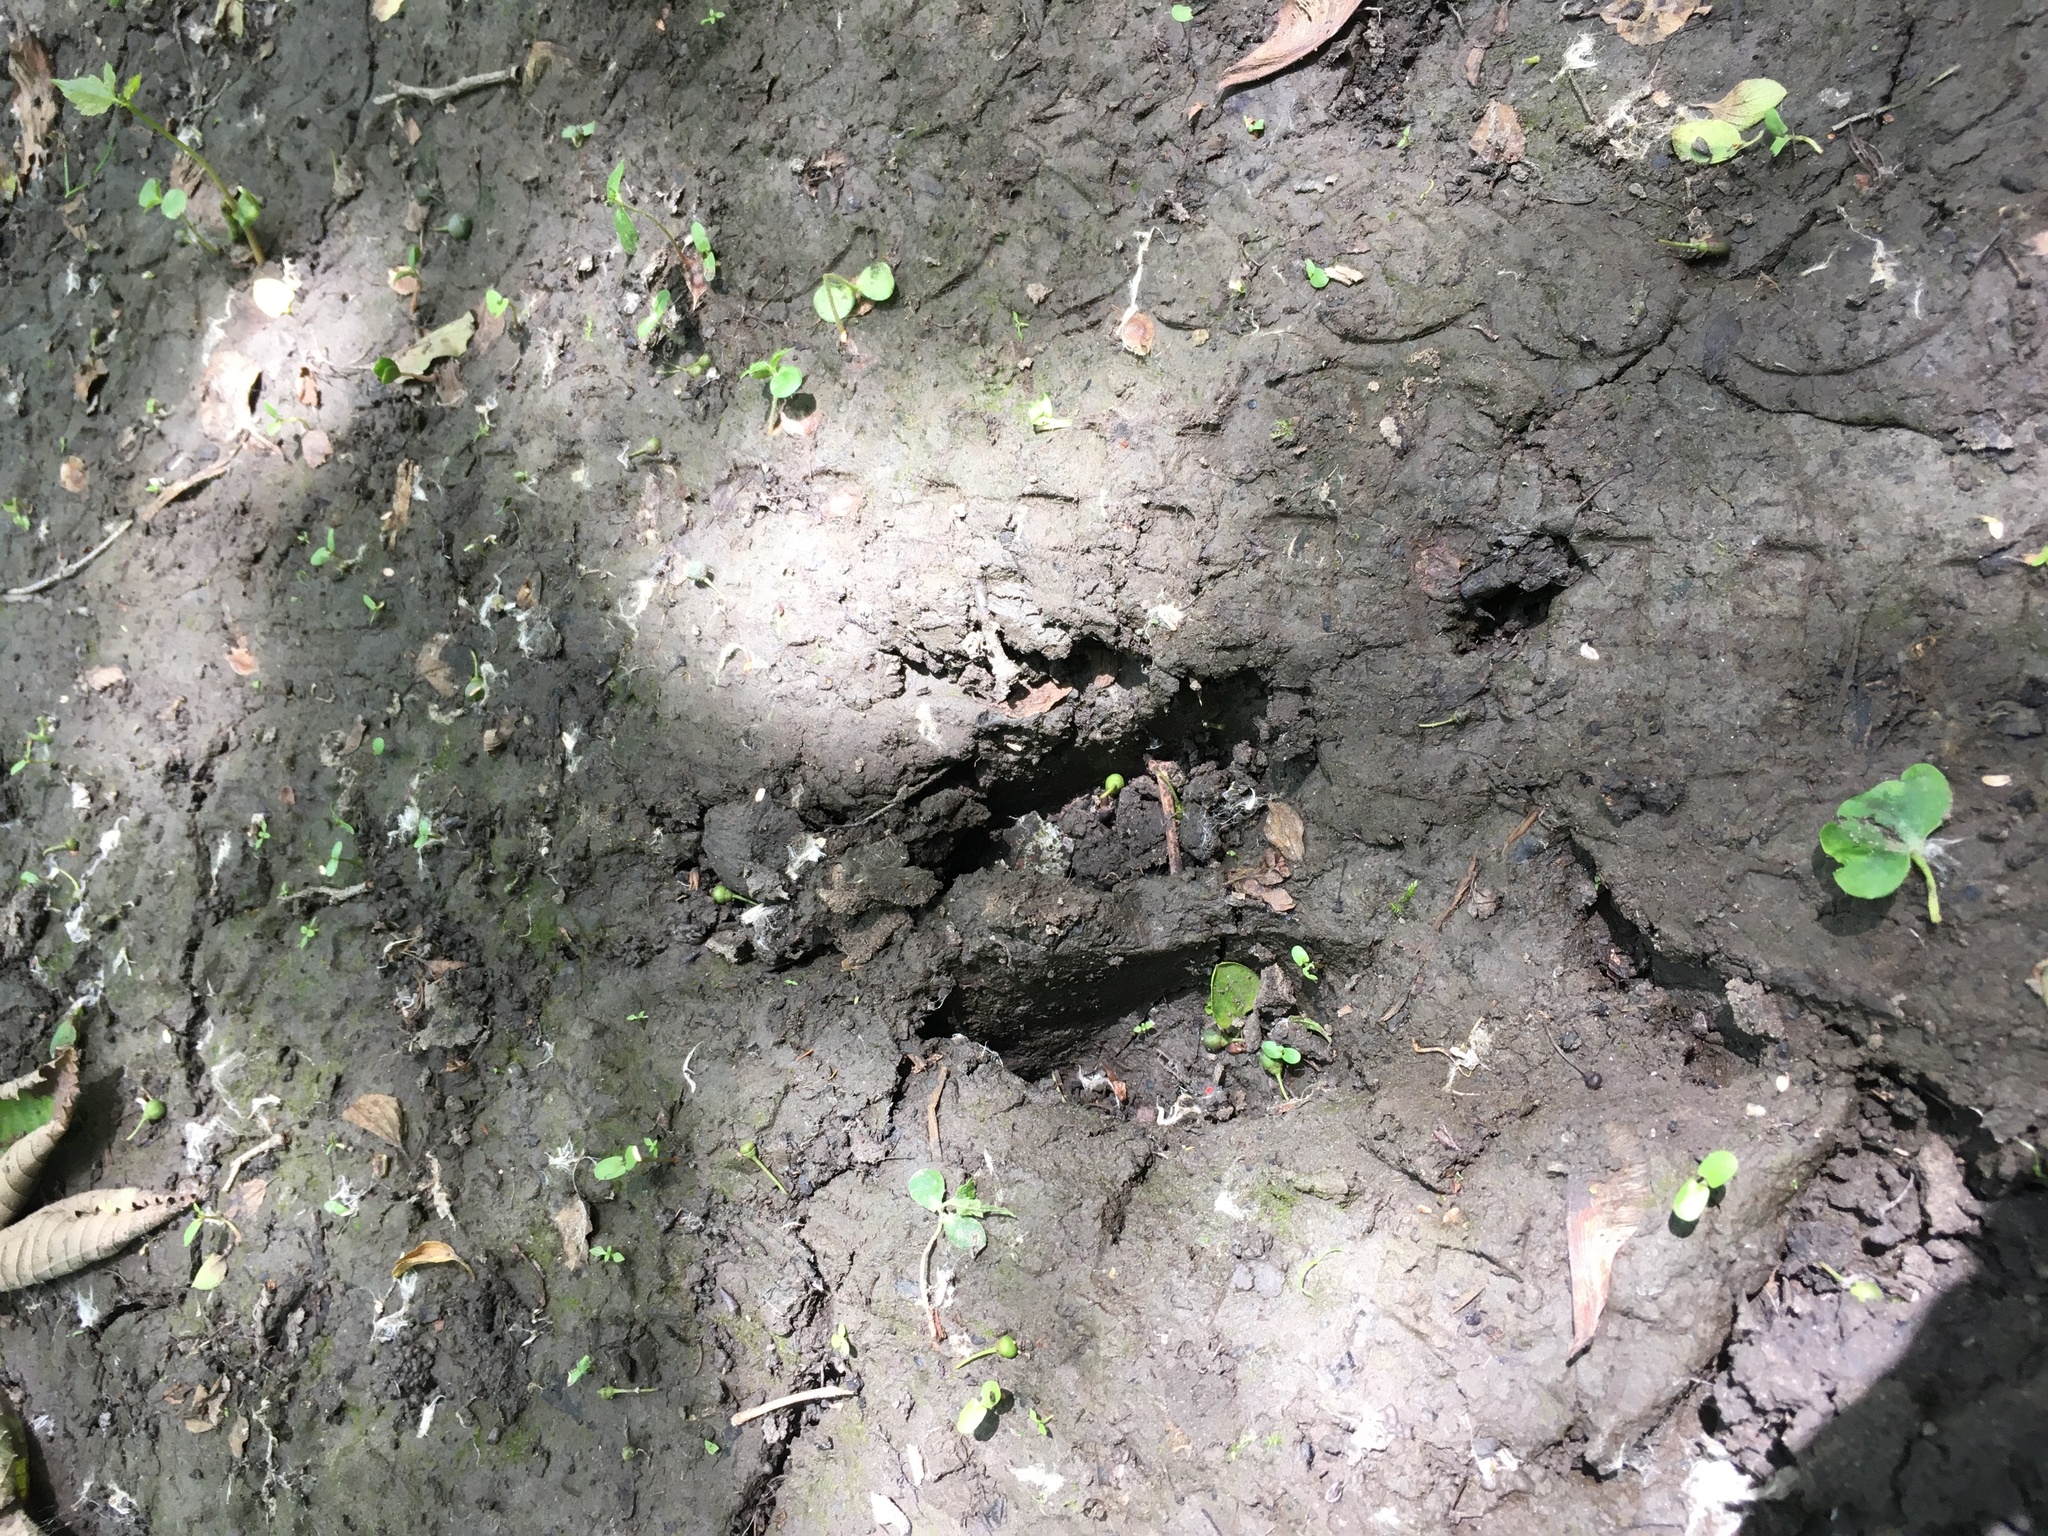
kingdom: Animalia
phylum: Chordata
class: Mammalia
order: Artiodactyla
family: Cervidae
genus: Odocoileus
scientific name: Odocoileus virginianus
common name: White-tailed deer
